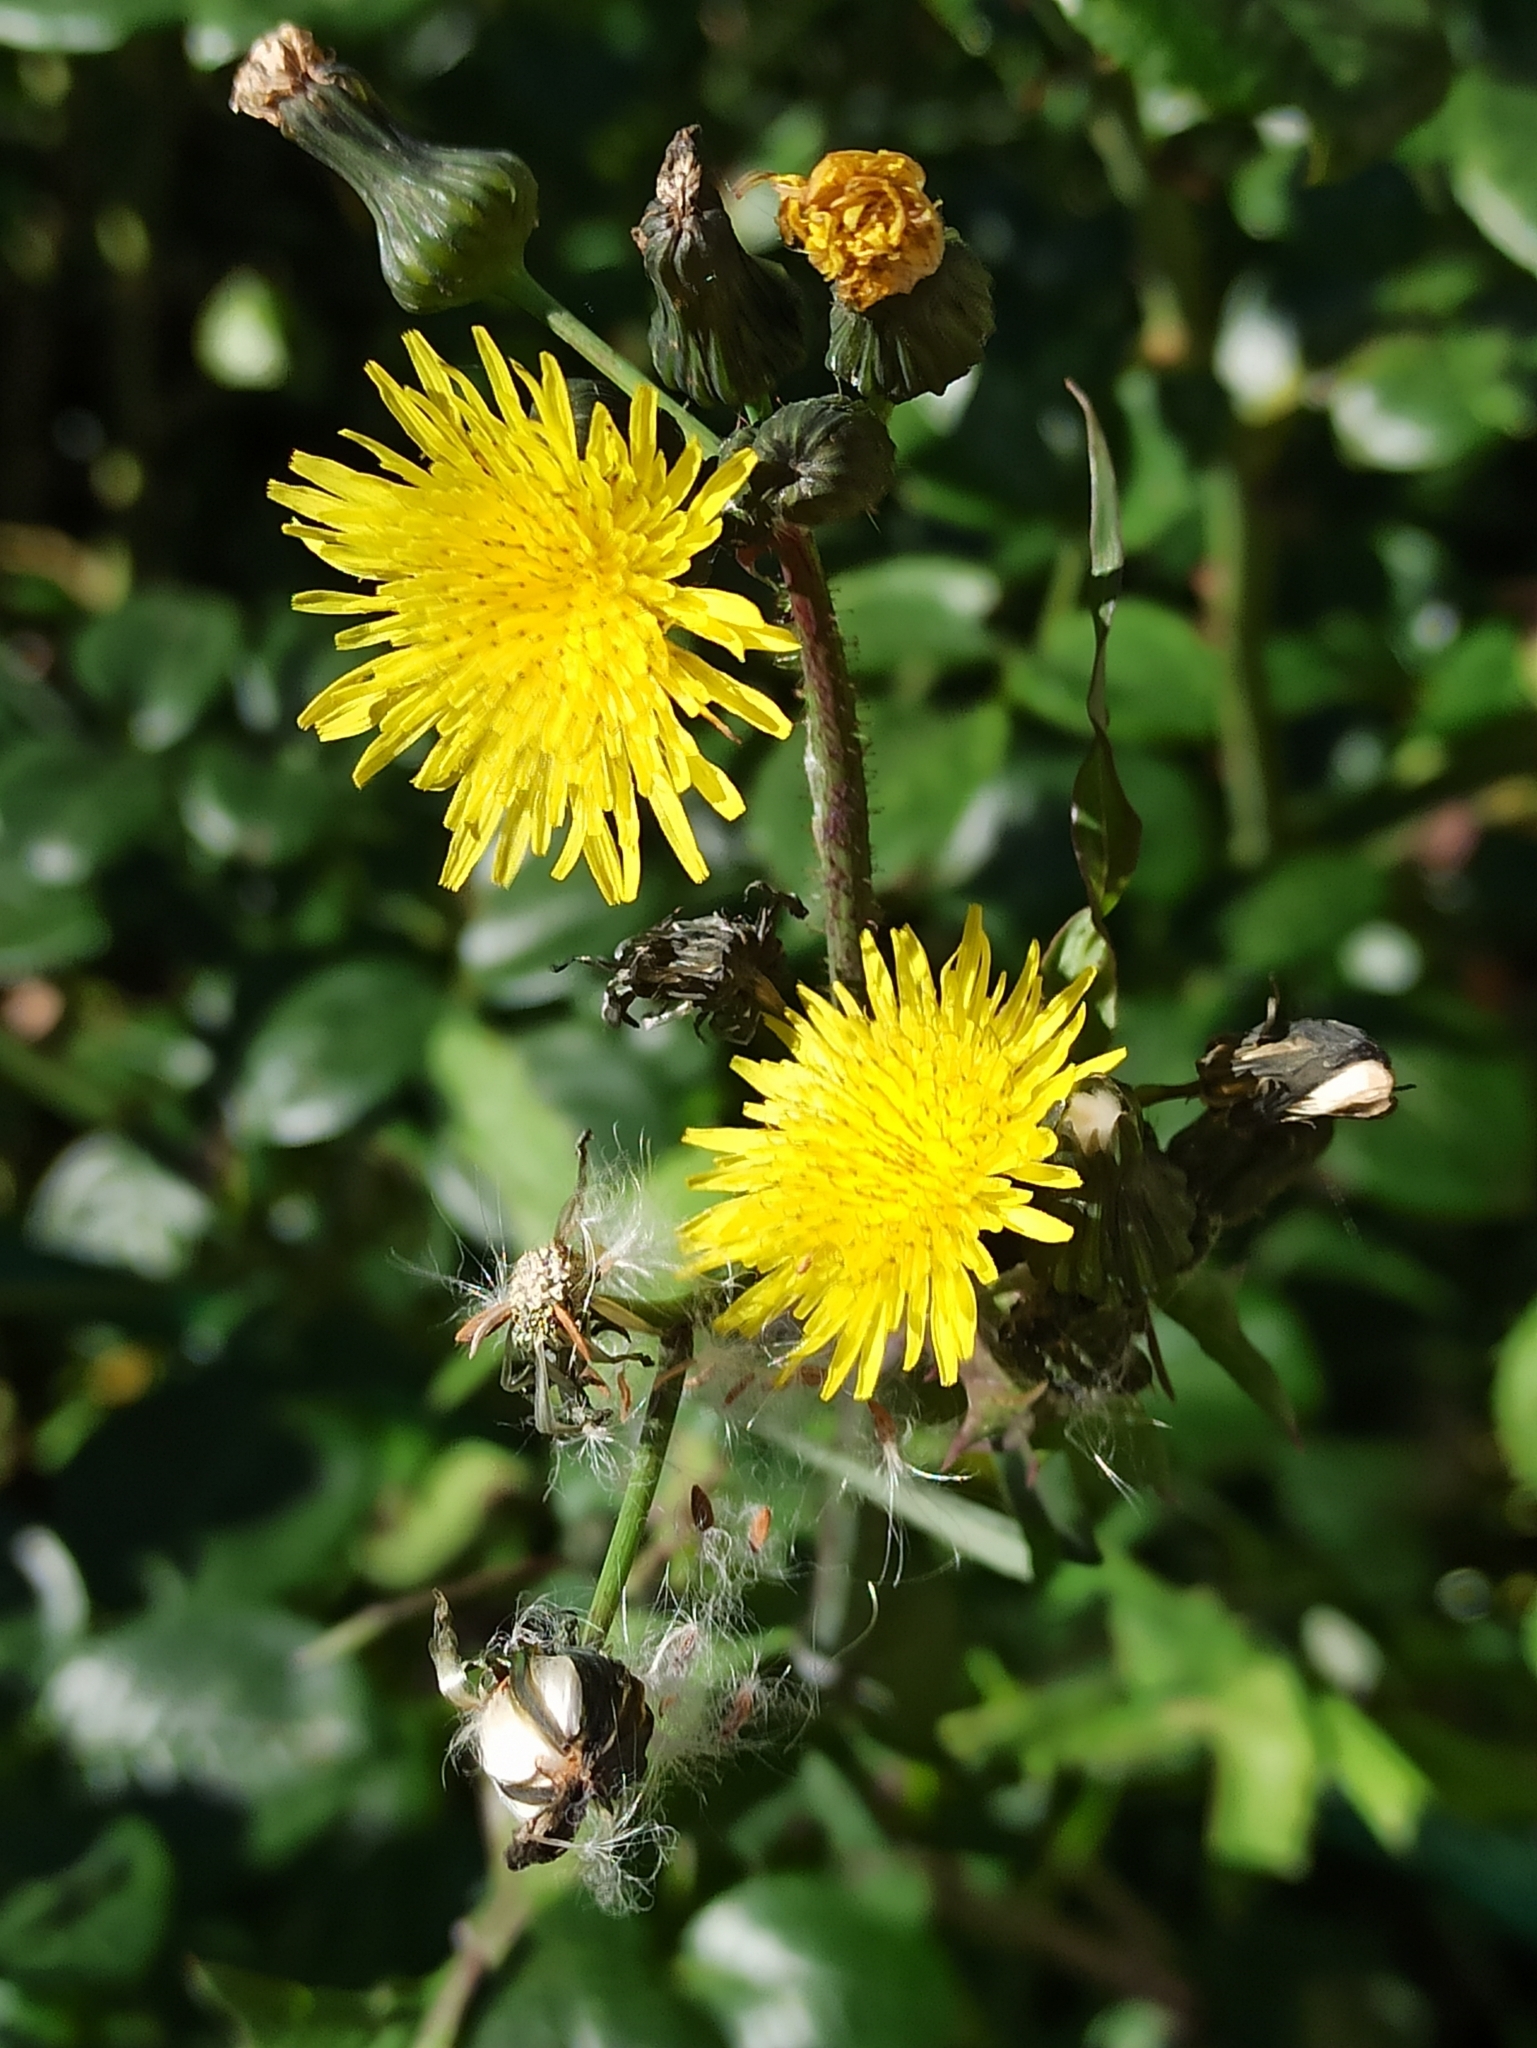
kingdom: Plantae
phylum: Tracheophyta
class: Magnoliopsida
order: Asterales
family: Asteraceae
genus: Sonchus
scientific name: Sonchus oleraceus
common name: Common sowthistle
